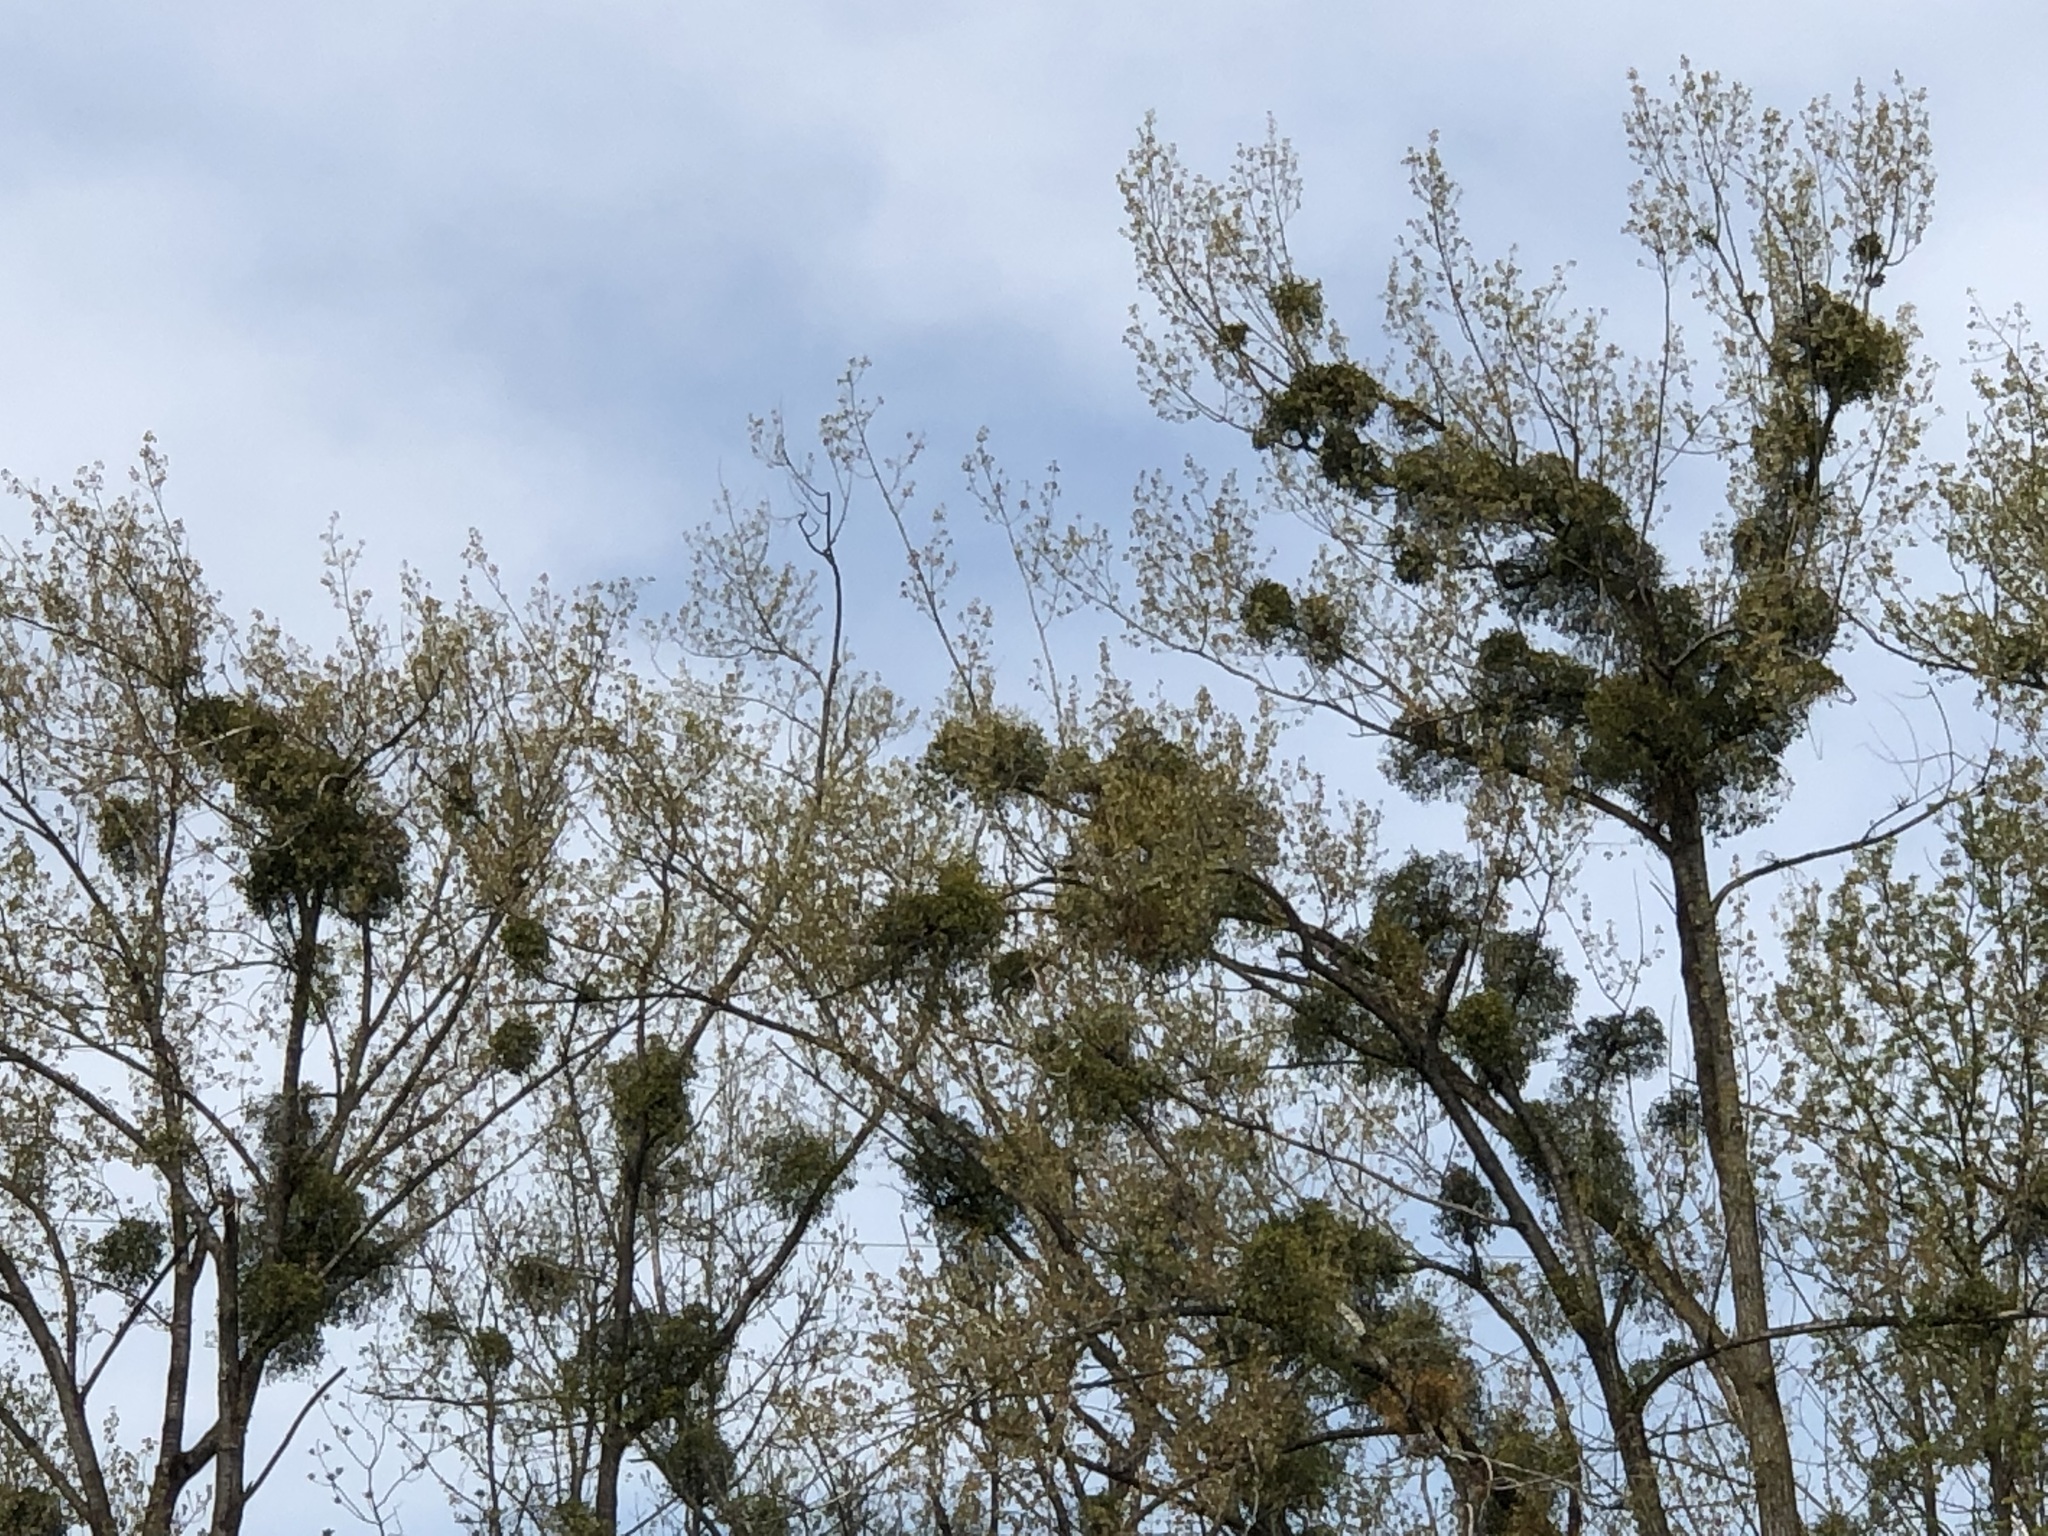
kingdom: Plantae
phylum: Tracheophyta
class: Magnoliopsida
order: Santalales
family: Viscaceae
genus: Viscum
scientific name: Viscum album
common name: Mistletoe
